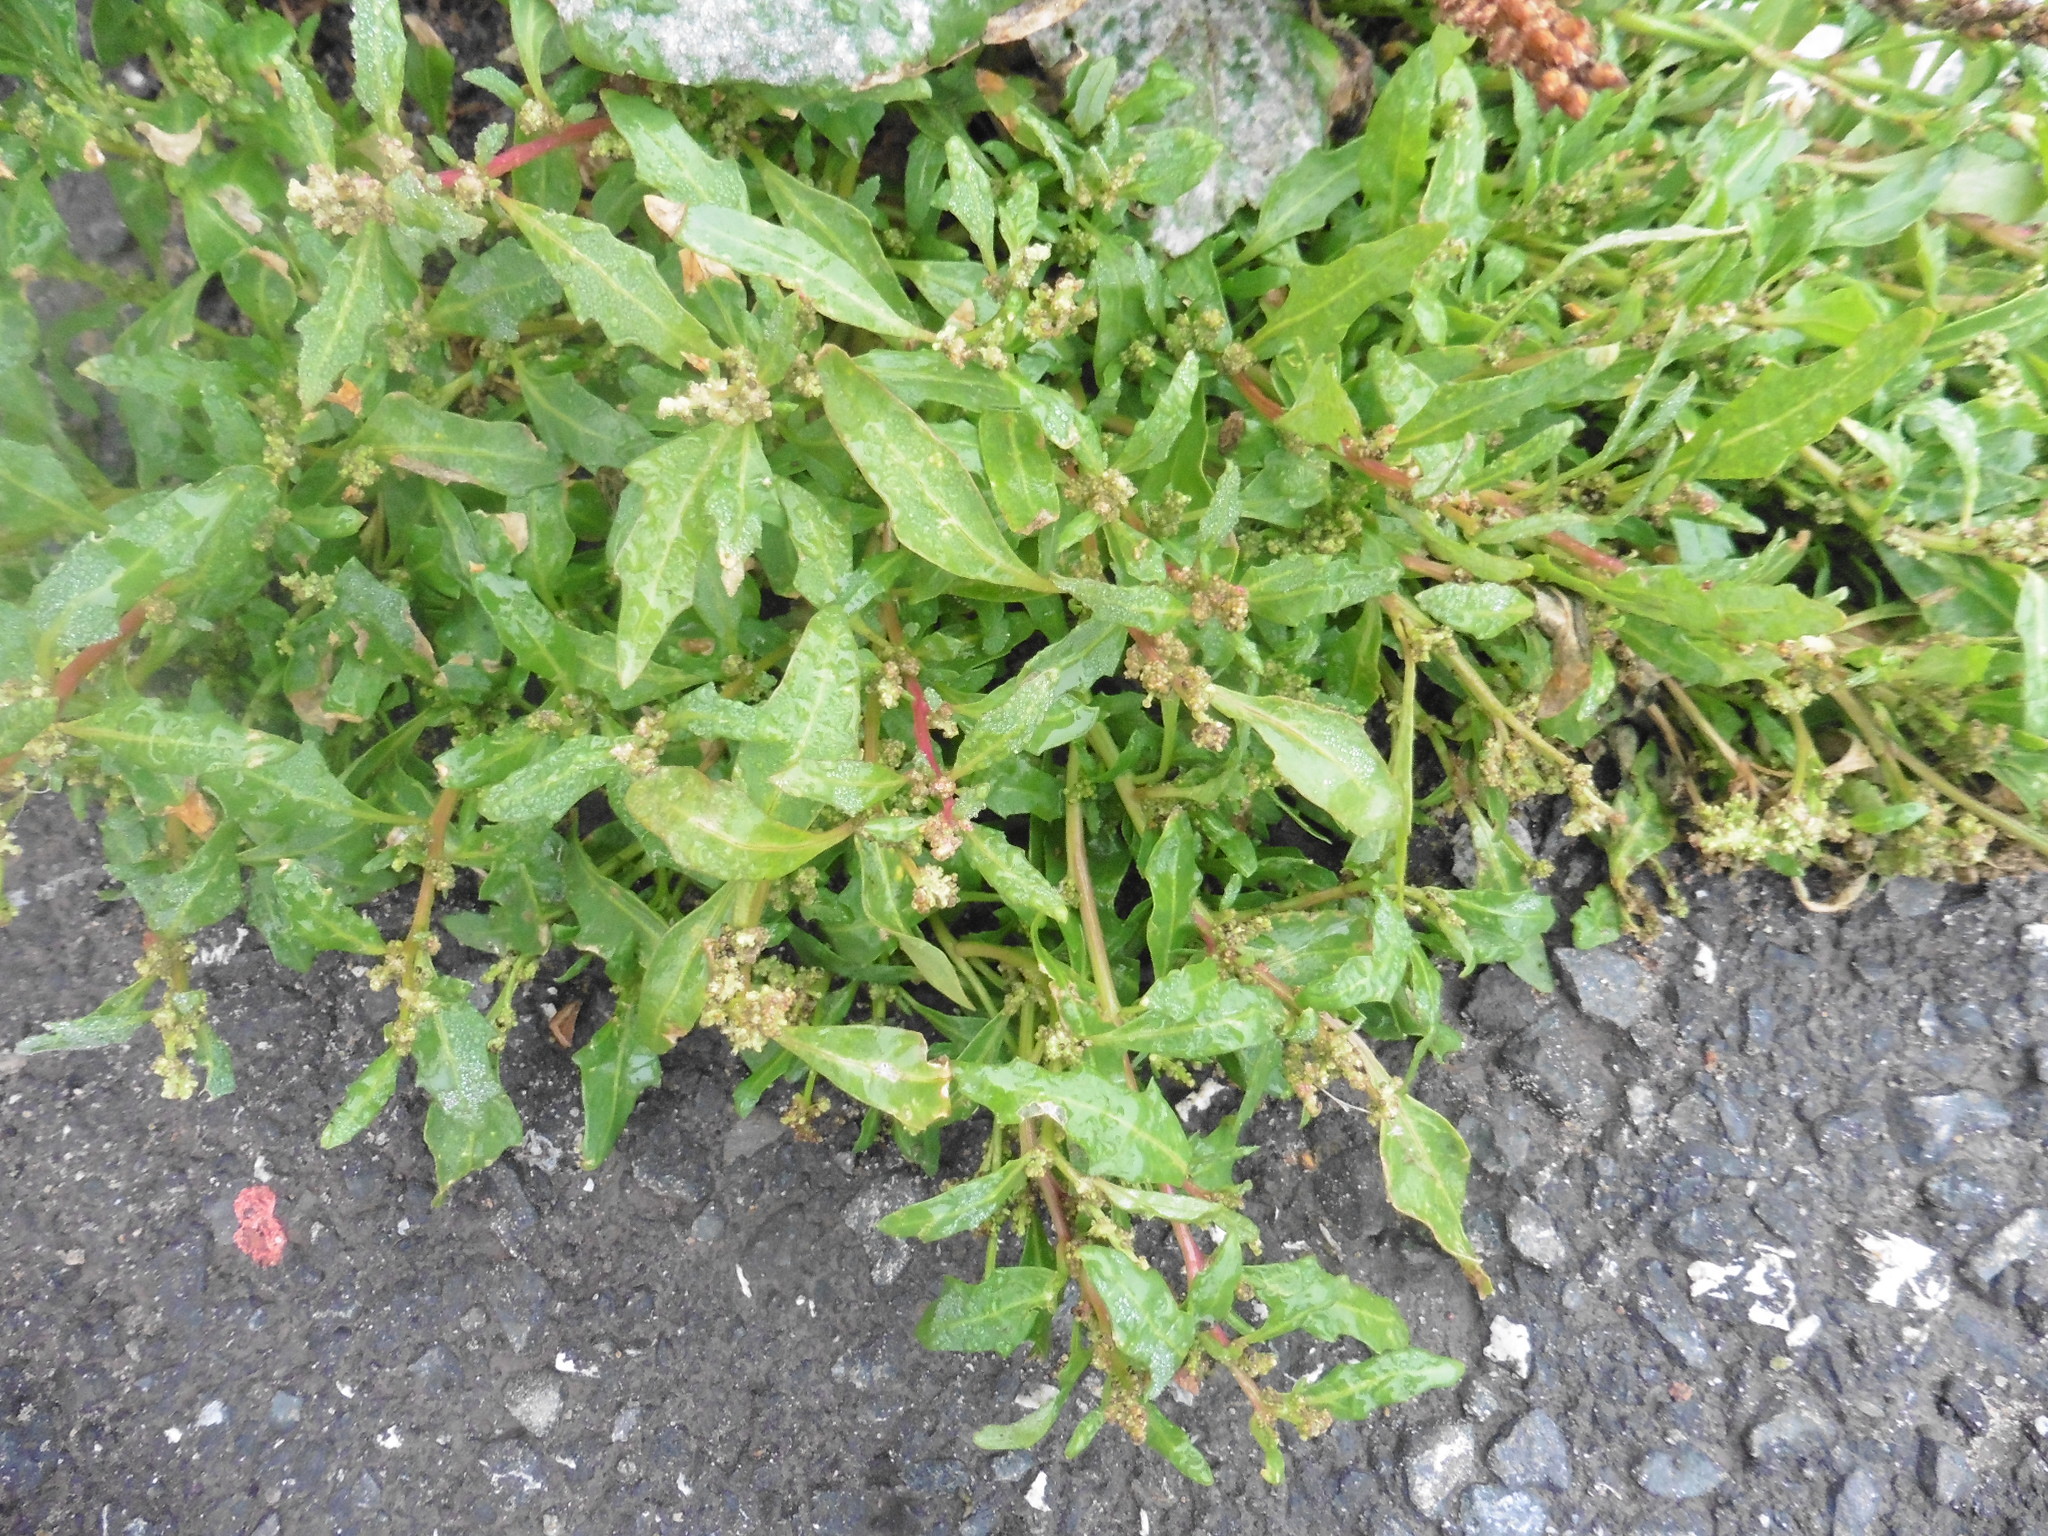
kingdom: Plantae
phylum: Tracheophyta
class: Magnoliopsida
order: Caryophyllales
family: Amaranthaceae
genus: Oxybasis
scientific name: Oxybasis glauca
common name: Glaucous goosefoot
